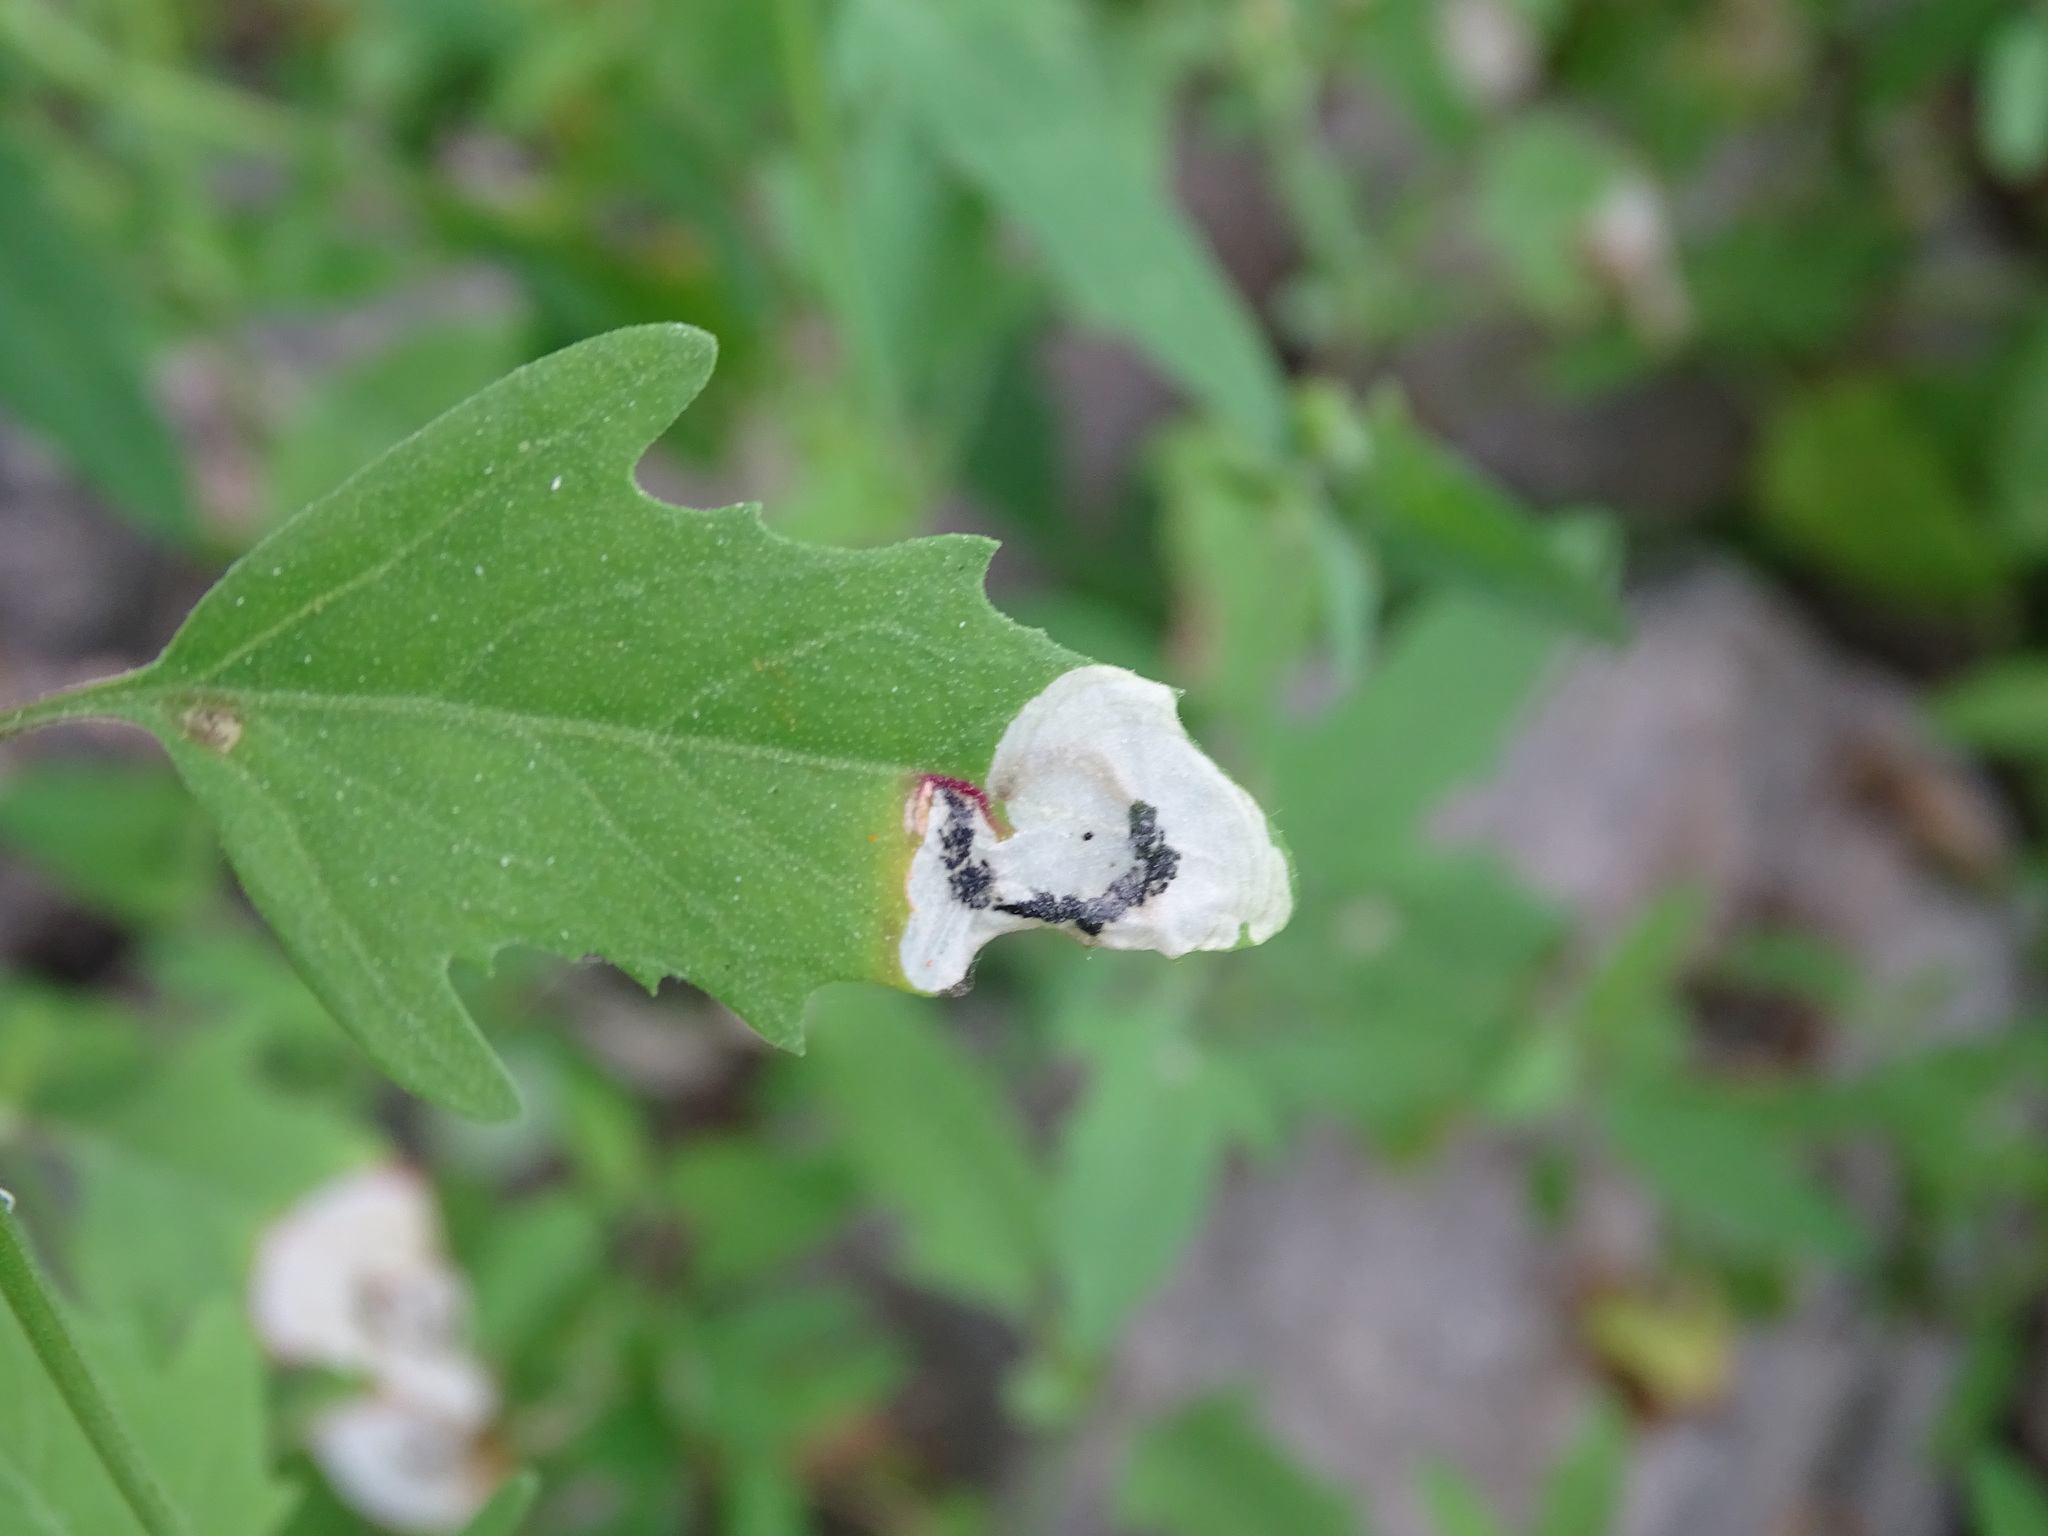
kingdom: Animalia
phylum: Arthropoda
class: Insecta
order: Lepidoptera
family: Gelechiidae
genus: Chrysoesthia
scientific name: Chrysoesthia sexguttella
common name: Moth
